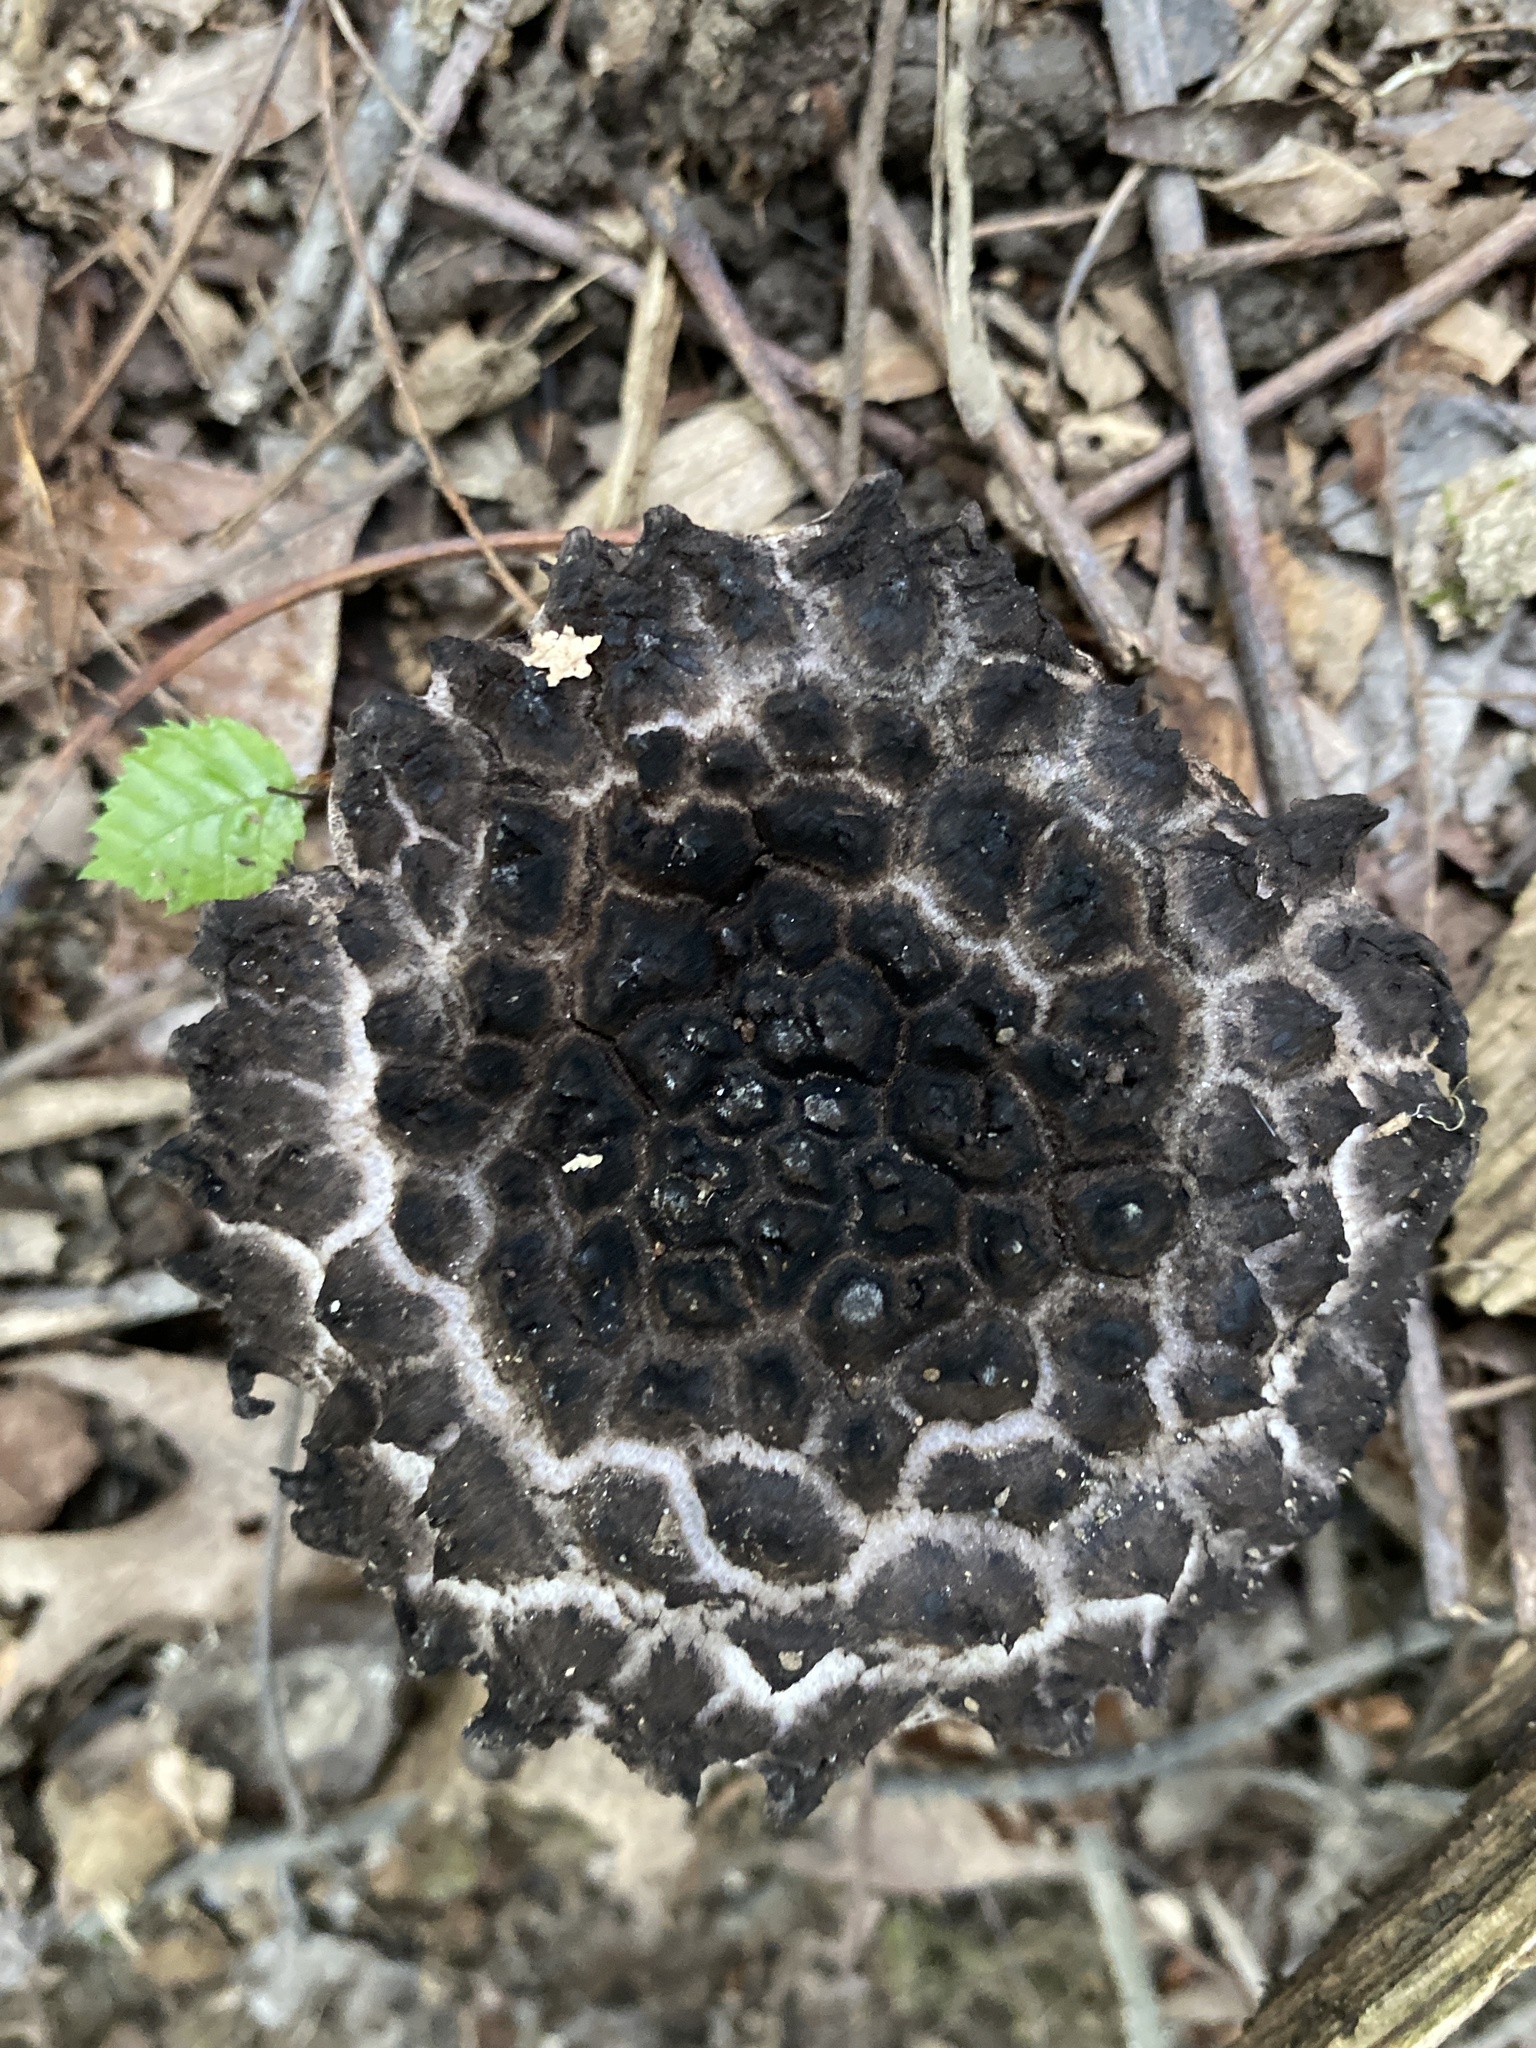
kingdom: Fungi
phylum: Basidiomycota
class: Agaricomycetes
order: Boletales
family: Boletaceae
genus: Strobilomyces
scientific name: Strobilomyces strobilaceus
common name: Old man of the woods
